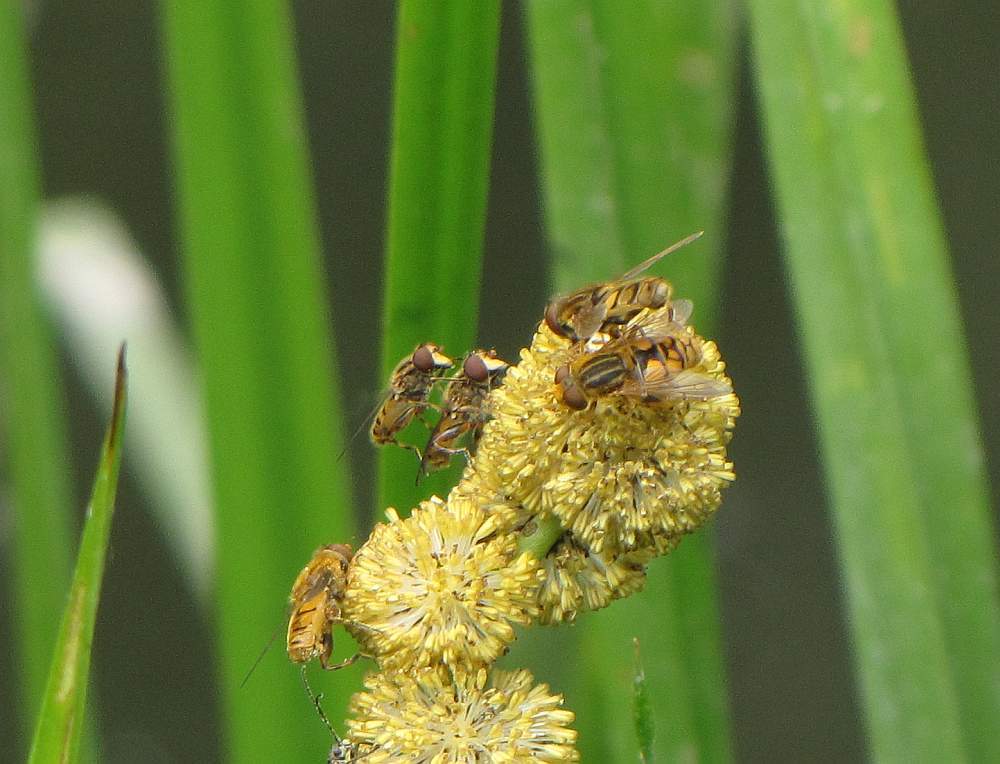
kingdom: Animalia
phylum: Arthropoda
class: Insecta
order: Diptera
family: Syrphidae
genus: Eurimyia
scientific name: Eurimyia stipatus
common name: Long-nosed swamp fly
